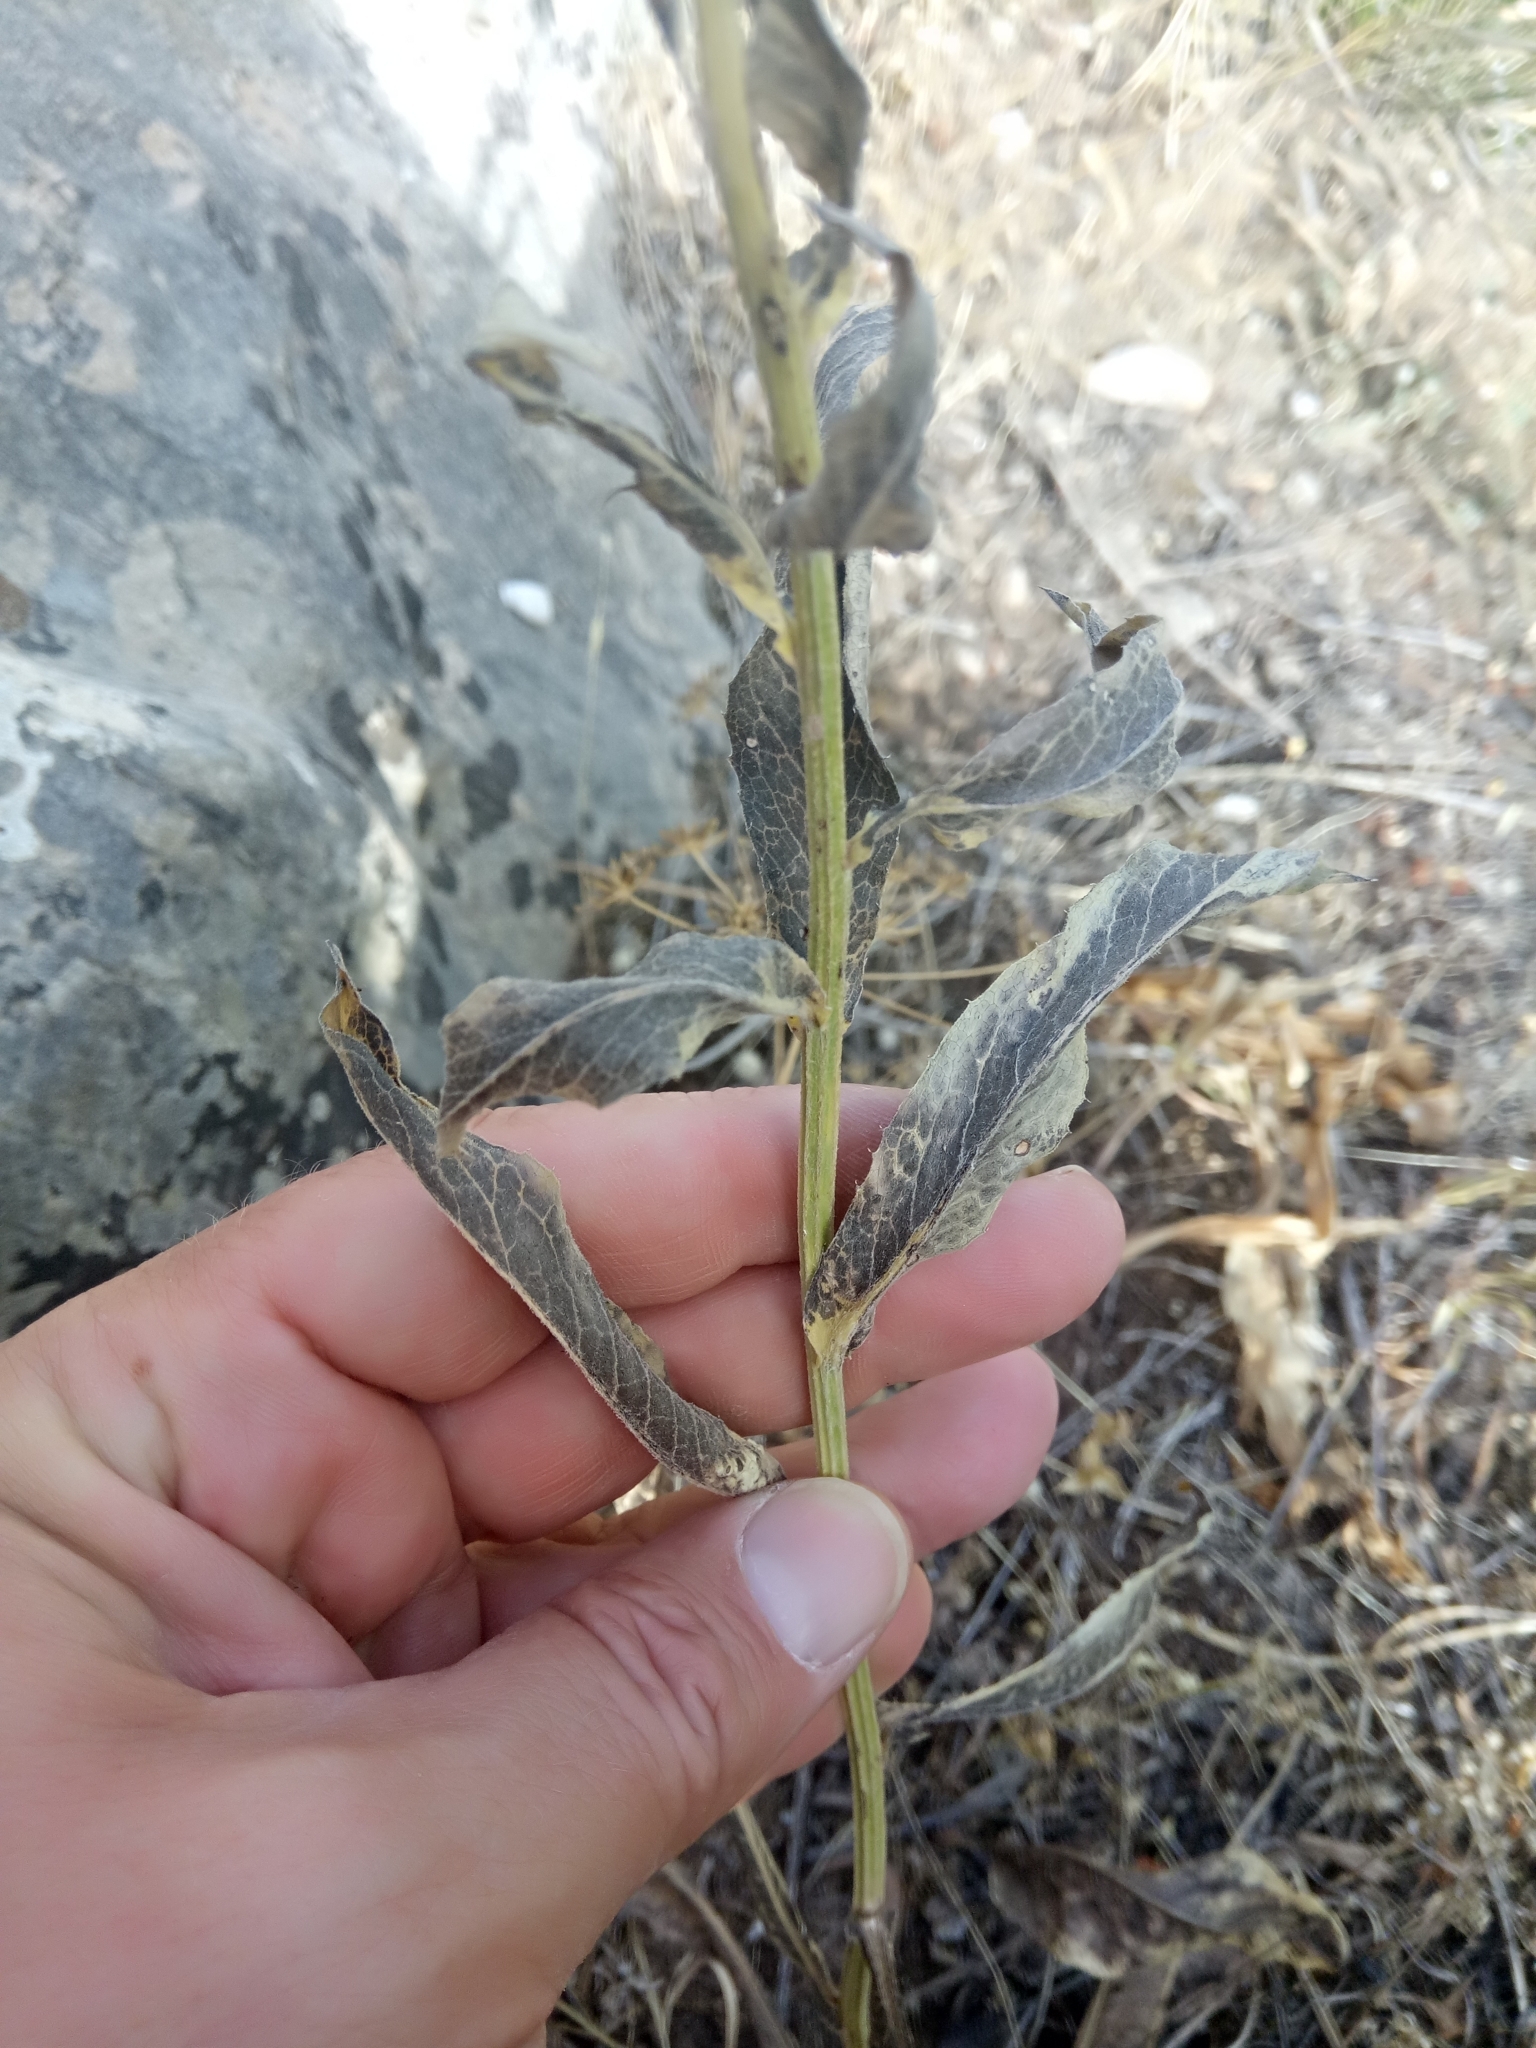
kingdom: Plantae
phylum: Tracheophyta
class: Magnoliopsida
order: Asterales
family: Asteraceae
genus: Klasea
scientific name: Klasea flavescens
